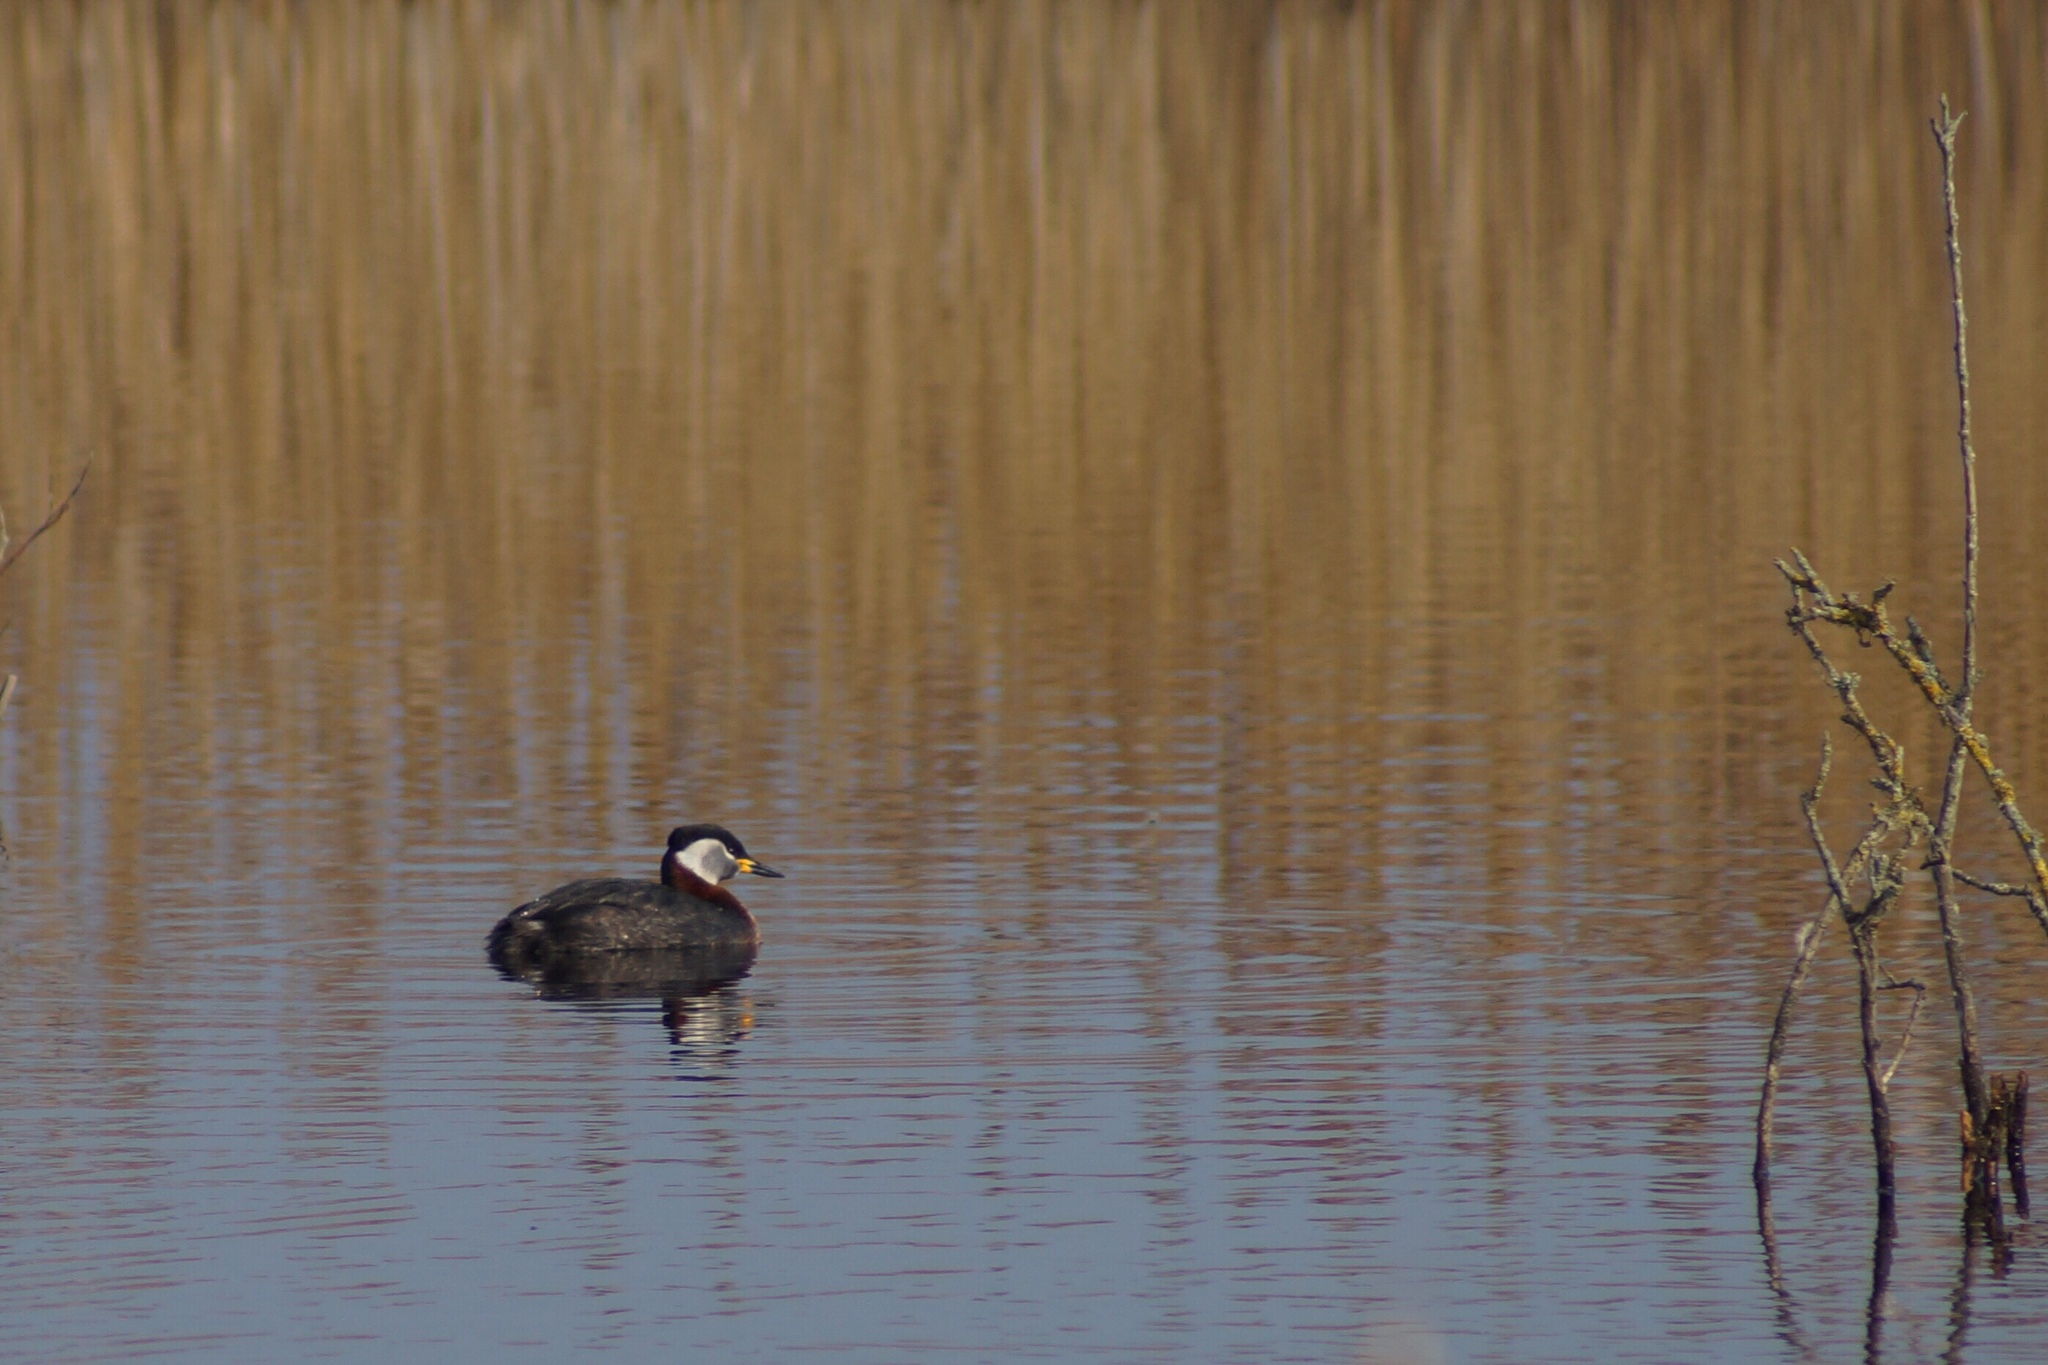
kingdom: Animalia
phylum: Chordata
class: Aves
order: Podicipediformes
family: Podicipedidae
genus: Podiceps
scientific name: Podiceps grisegena
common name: Red-necked grebe
